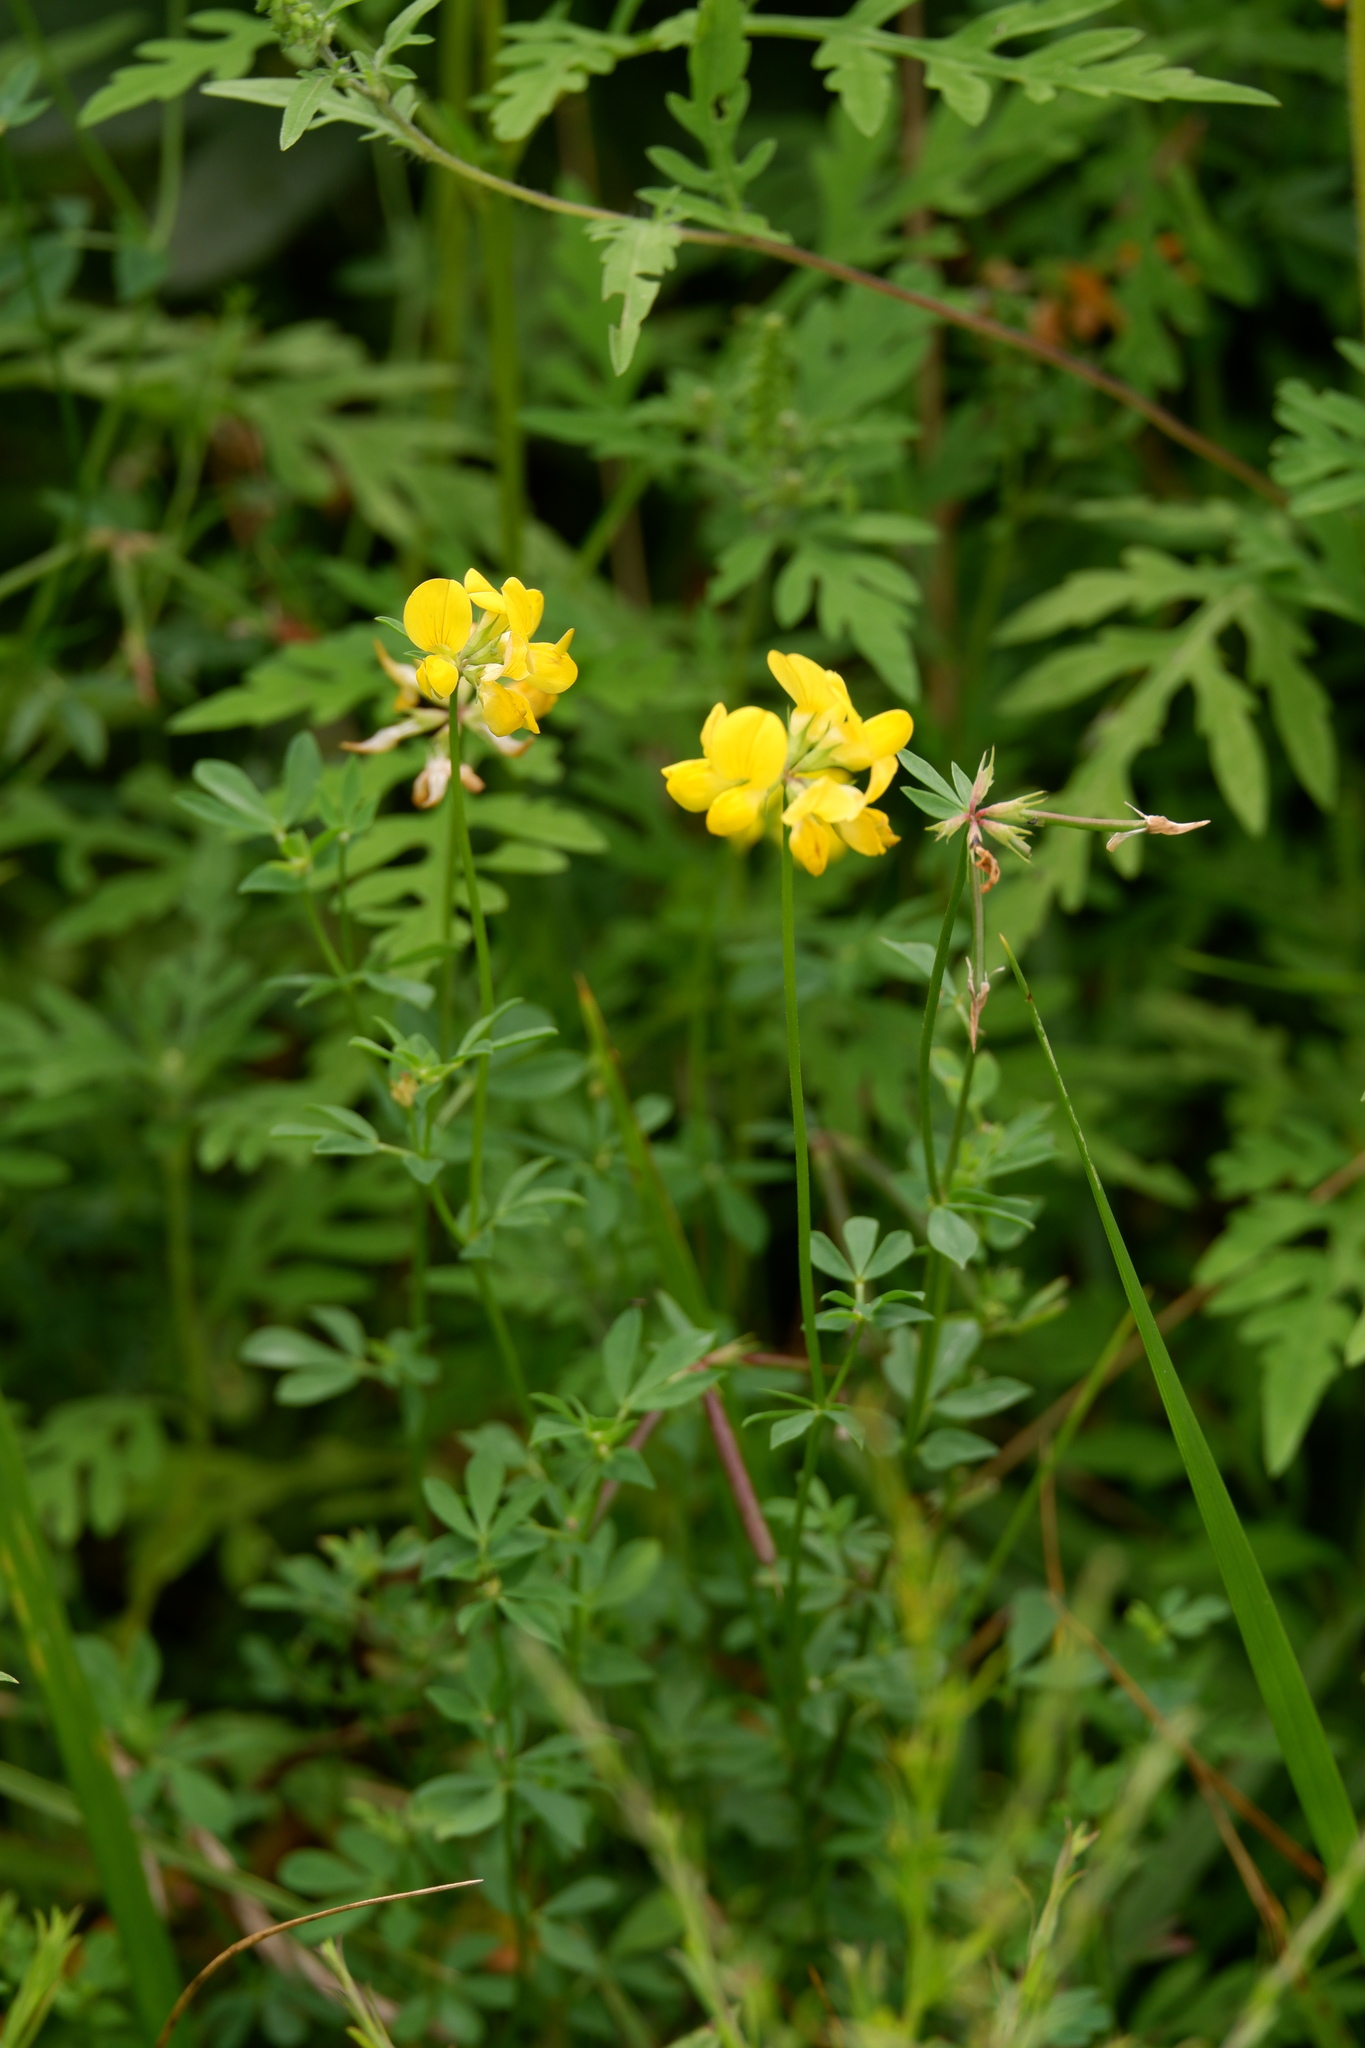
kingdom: Plantae
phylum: Tracheophyta
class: Magnoliopsida
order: Fabales
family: Fabaceae
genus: Lotus
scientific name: Lotus corniculatus
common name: Common bird's-foot-trefoil
